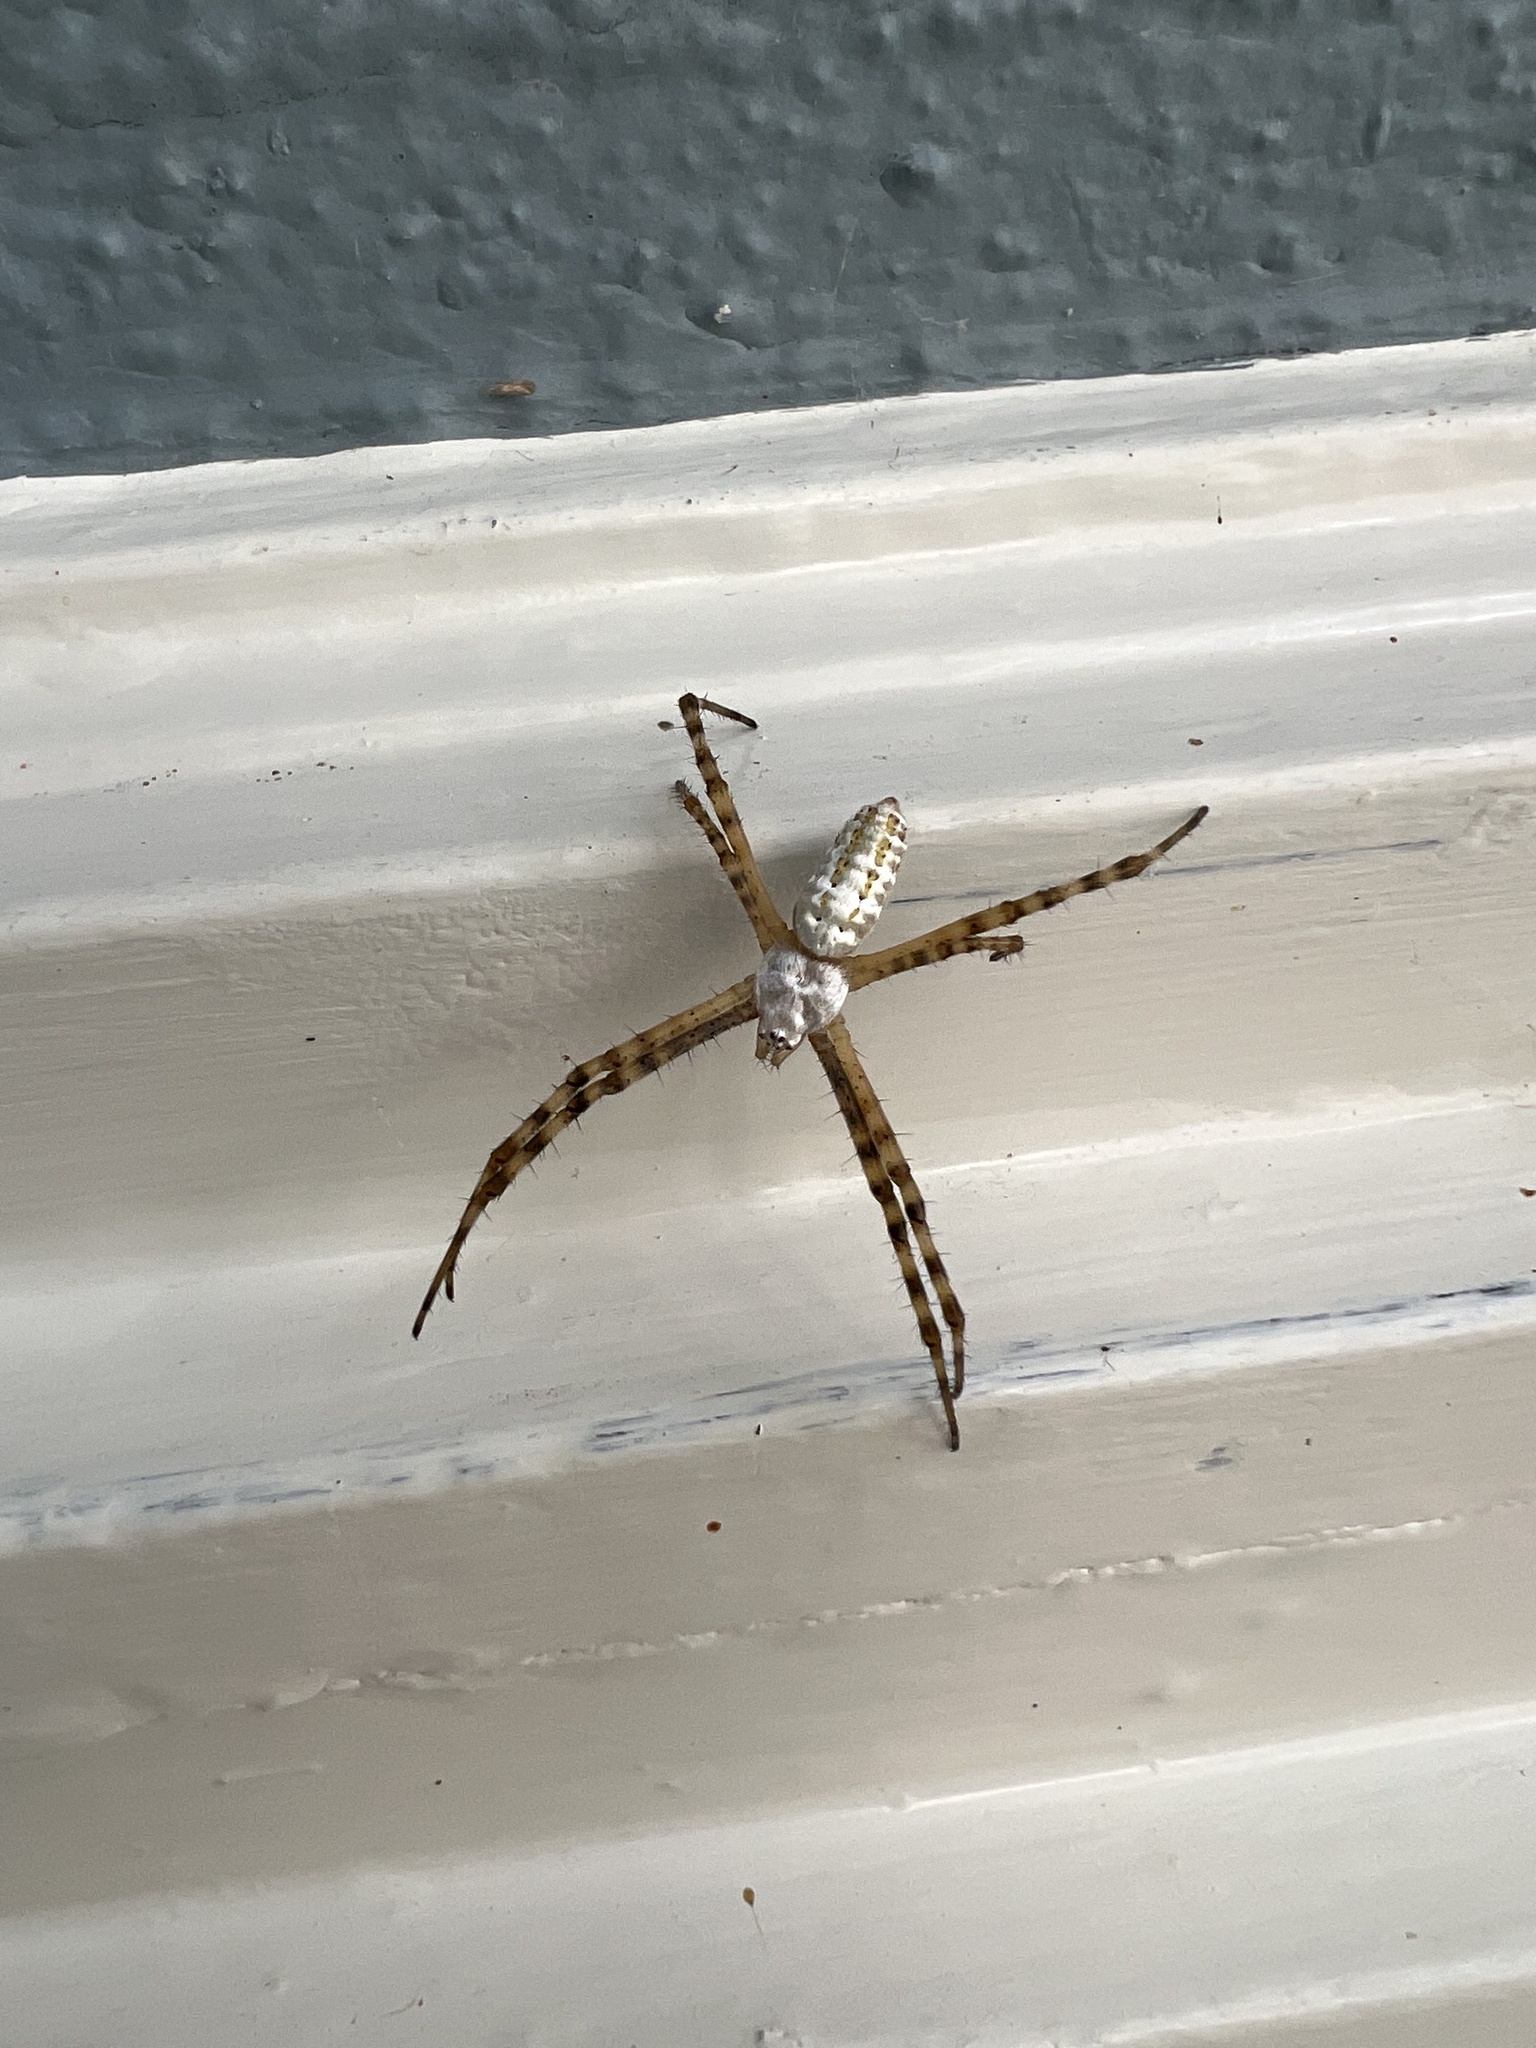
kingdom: Animalia
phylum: Arthropoda
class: Arachnida
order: Araneae
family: Araneidae
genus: Argiope
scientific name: Argiope trifasciata
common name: Banded garden spider
